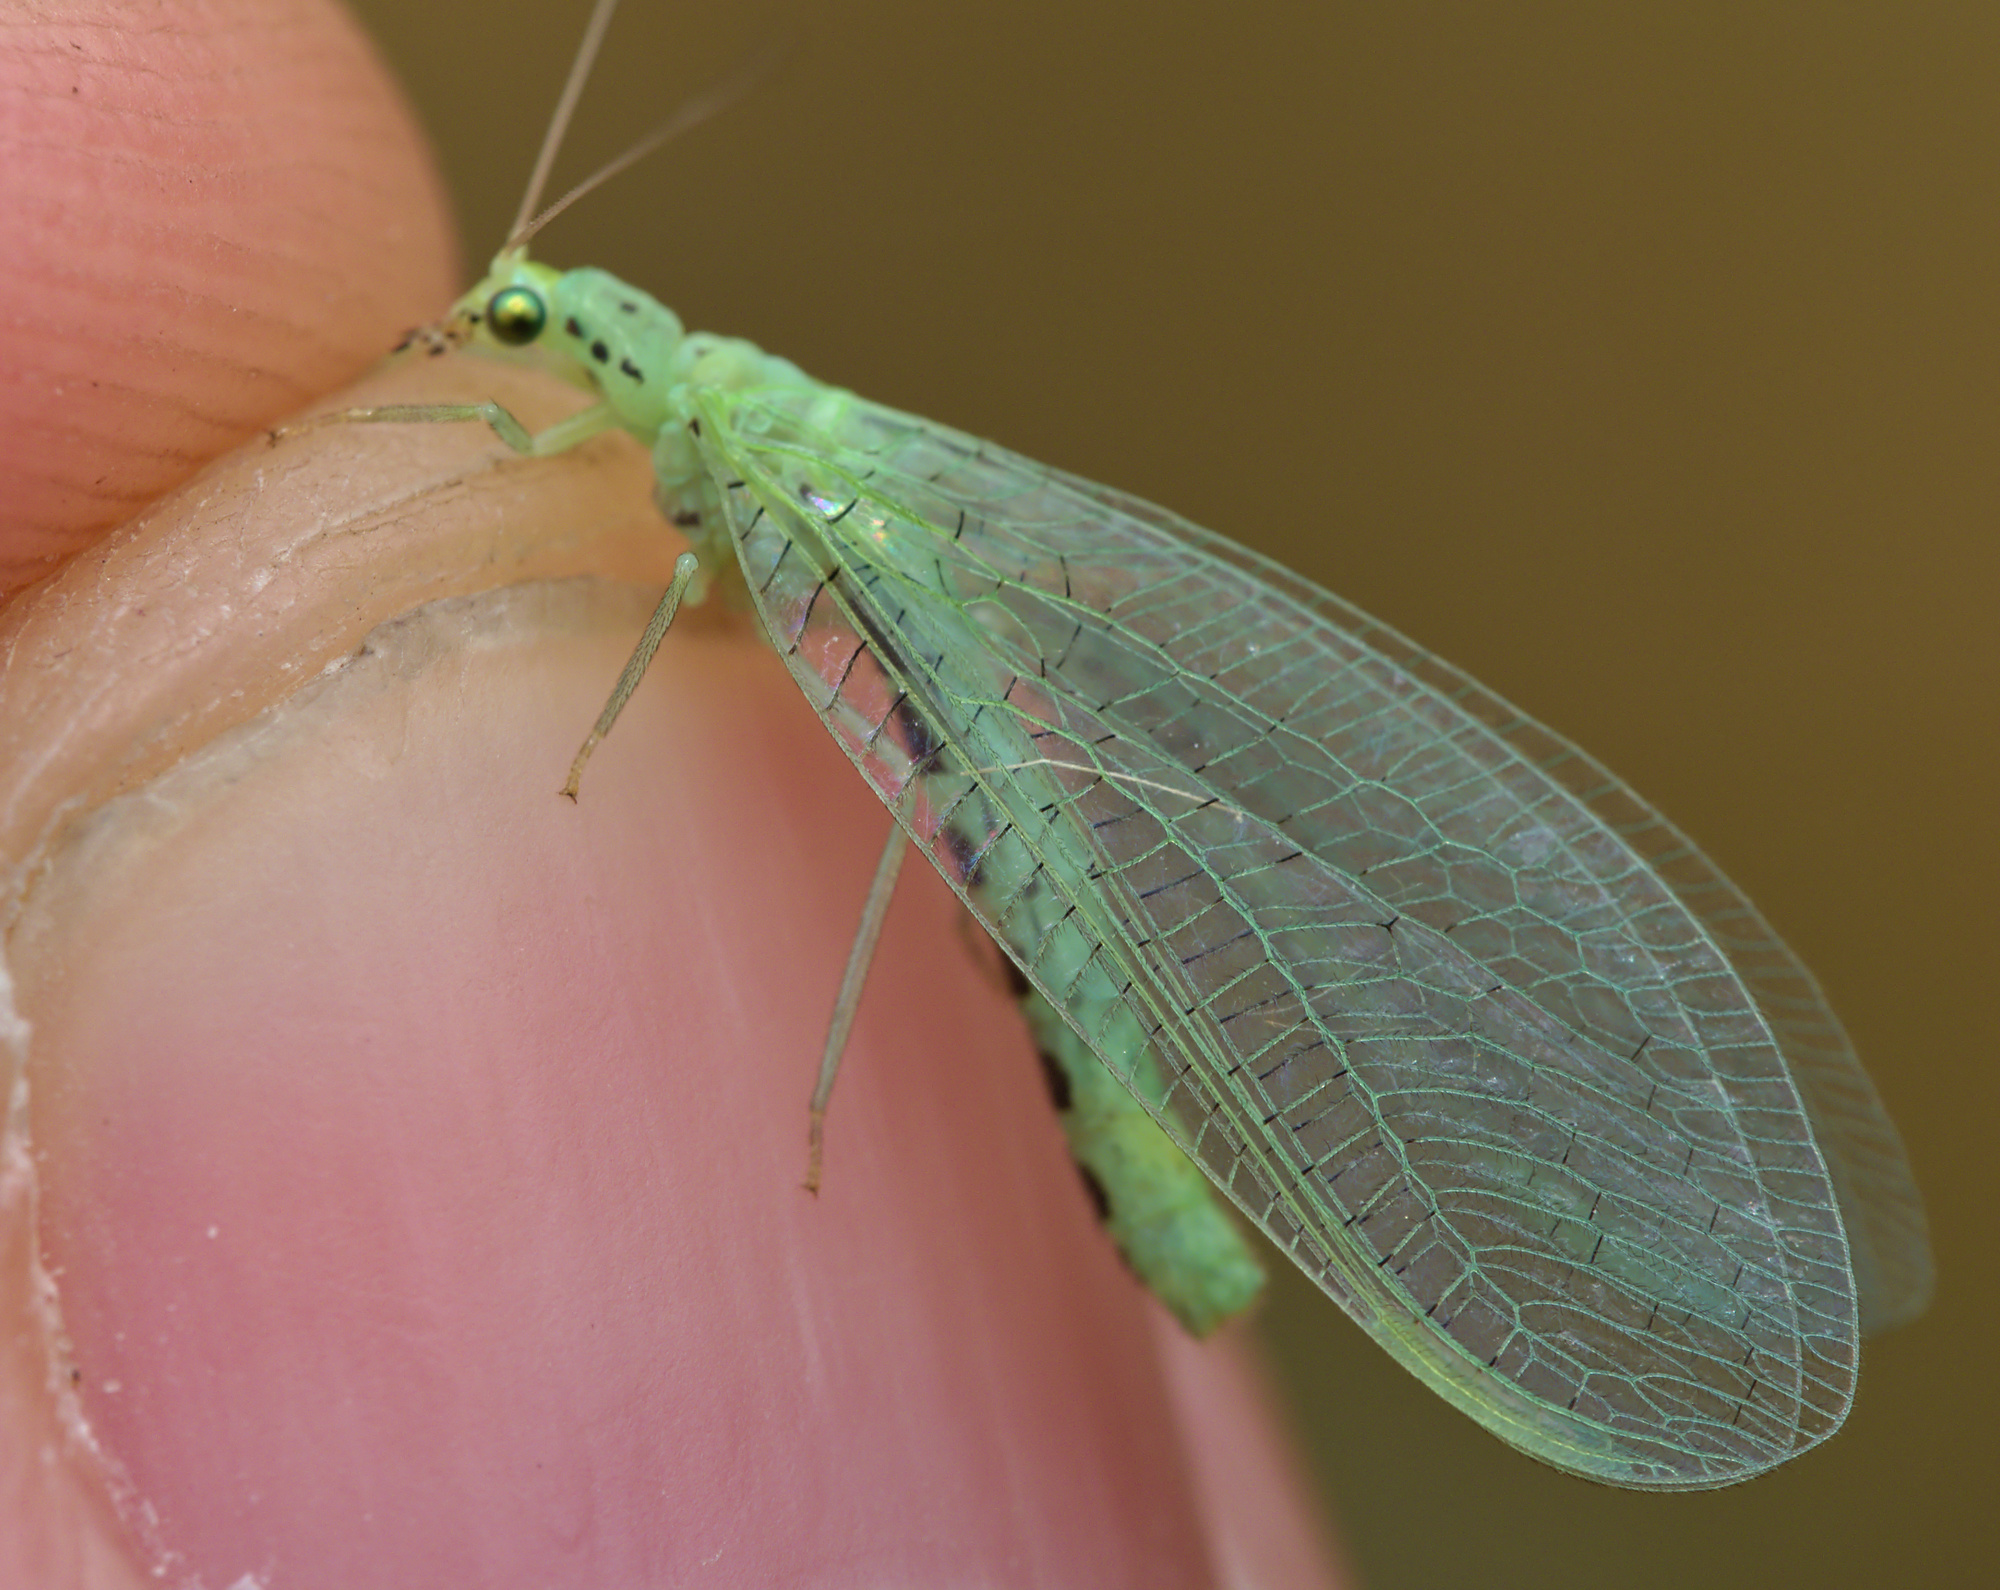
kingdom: Animalia
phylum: Arthropoda
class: Insecta
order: Neuroptera
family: Chrysopidae
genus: Pseudomallada
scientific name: Pseudomallada ventralis
